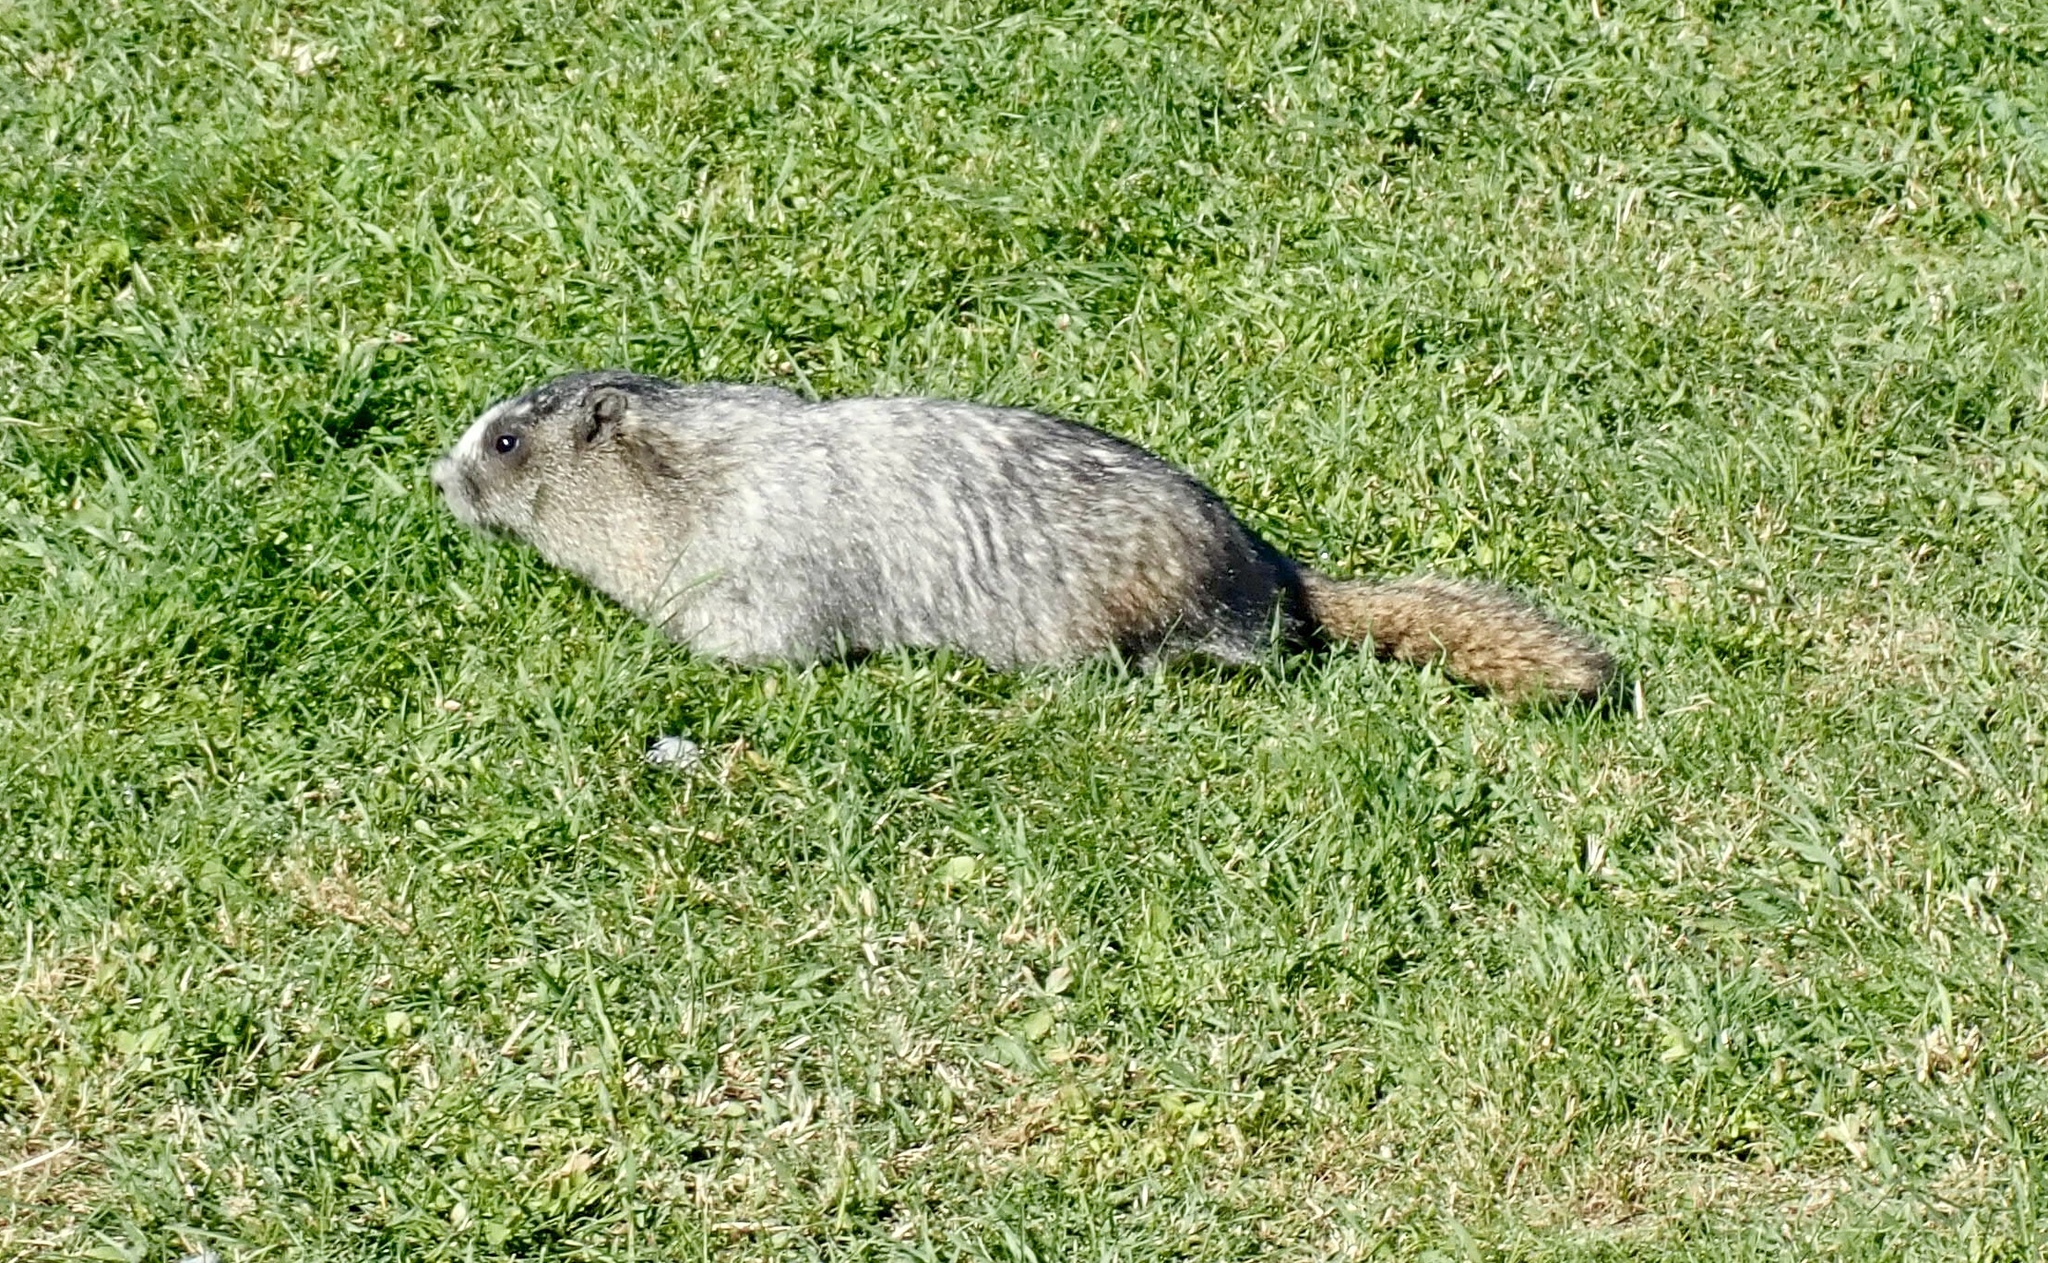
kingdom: Animalia
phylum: Chordata
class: Mammalia
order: Rodentia
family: Sciuridae
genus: Marmota
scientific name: Marmota caligata
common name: Hoary marmot
